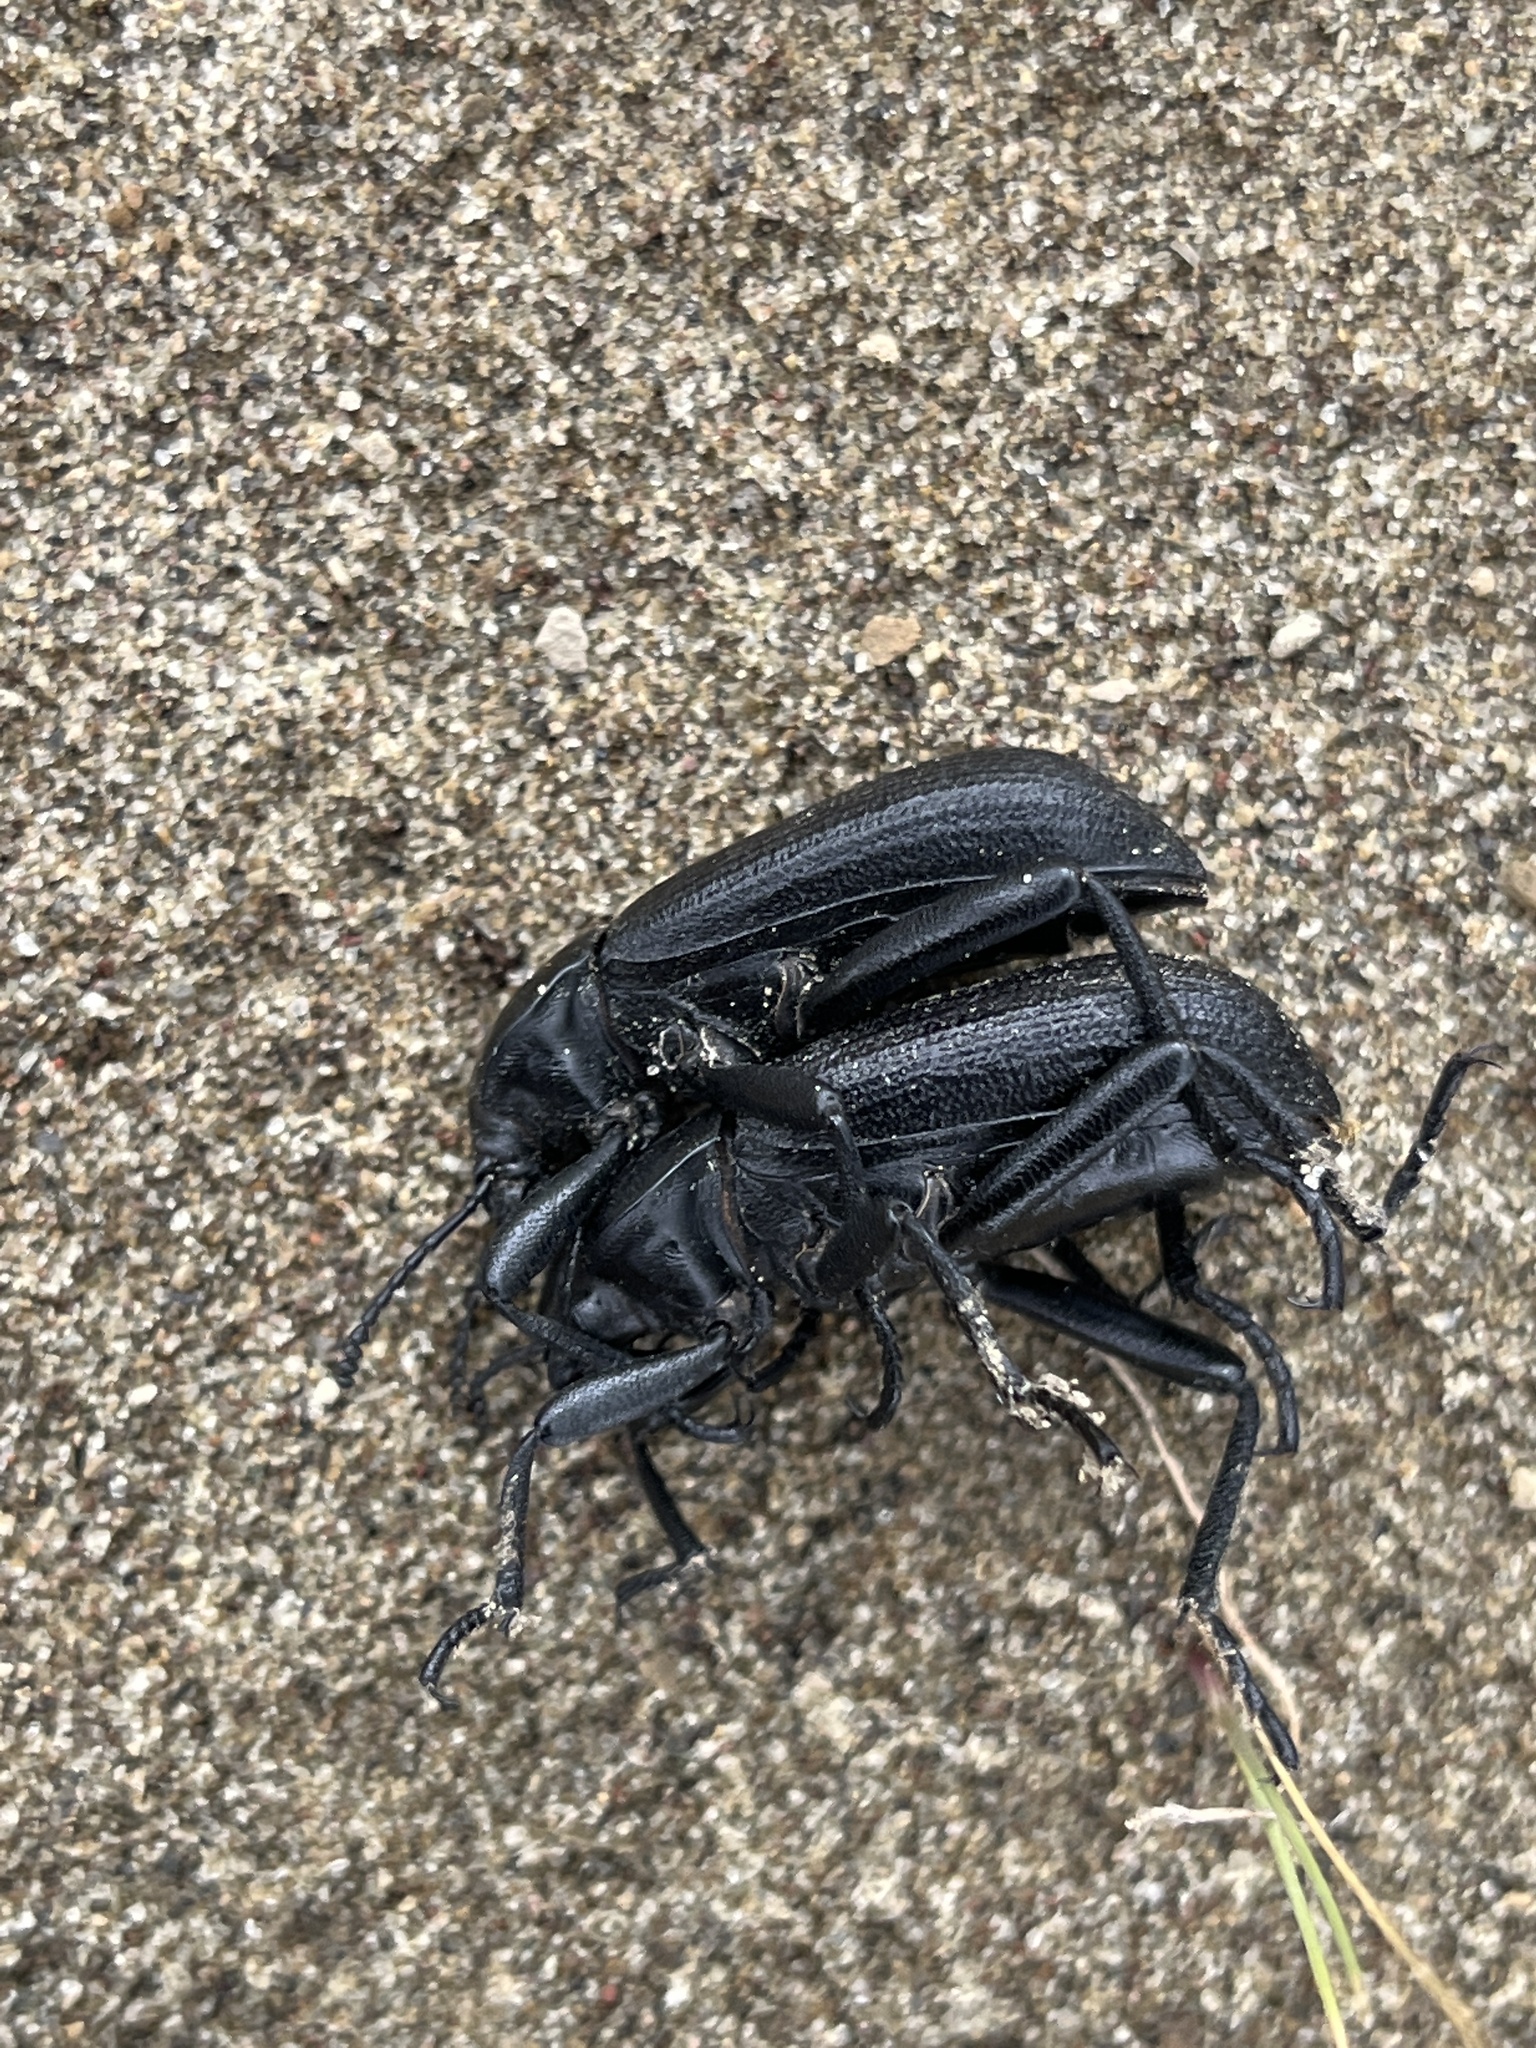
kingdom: Animalia
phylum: Arthropoda
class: Insecta
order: Coleoptera
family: Tenebrionidae
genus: Eleodes
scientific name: Eleodes obscura
